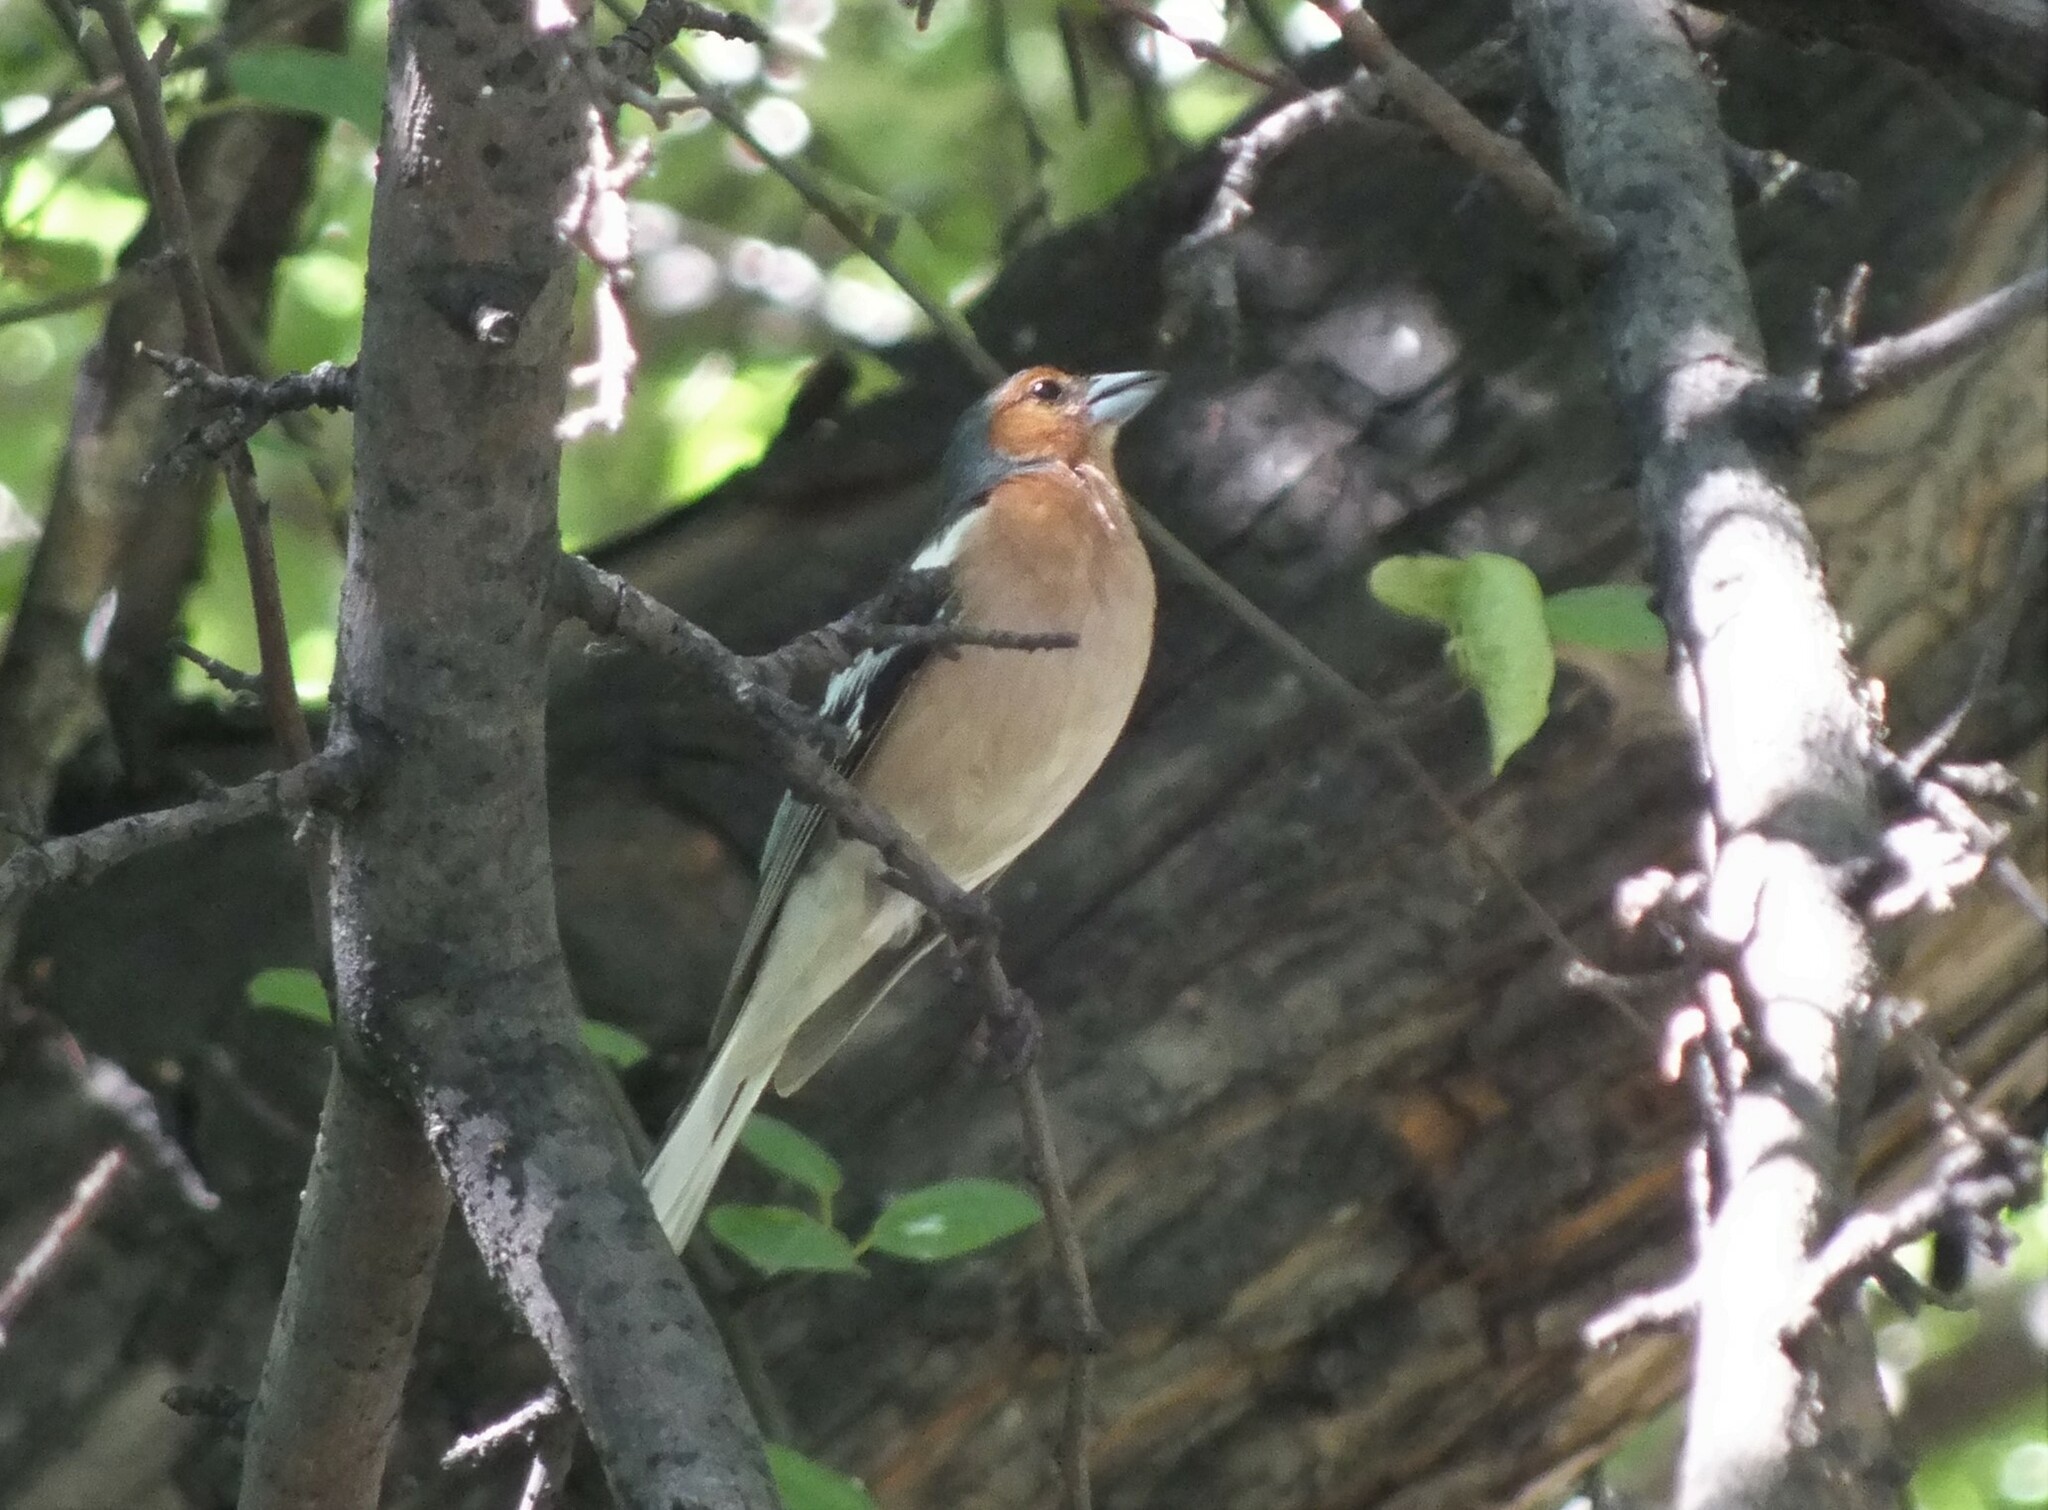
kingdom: Animalia
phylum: Chordata
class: Aves
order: Passeriformes
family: Fringillidae
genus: Fringilla
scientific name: Fringilla coelebs
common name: Common chaffinch
